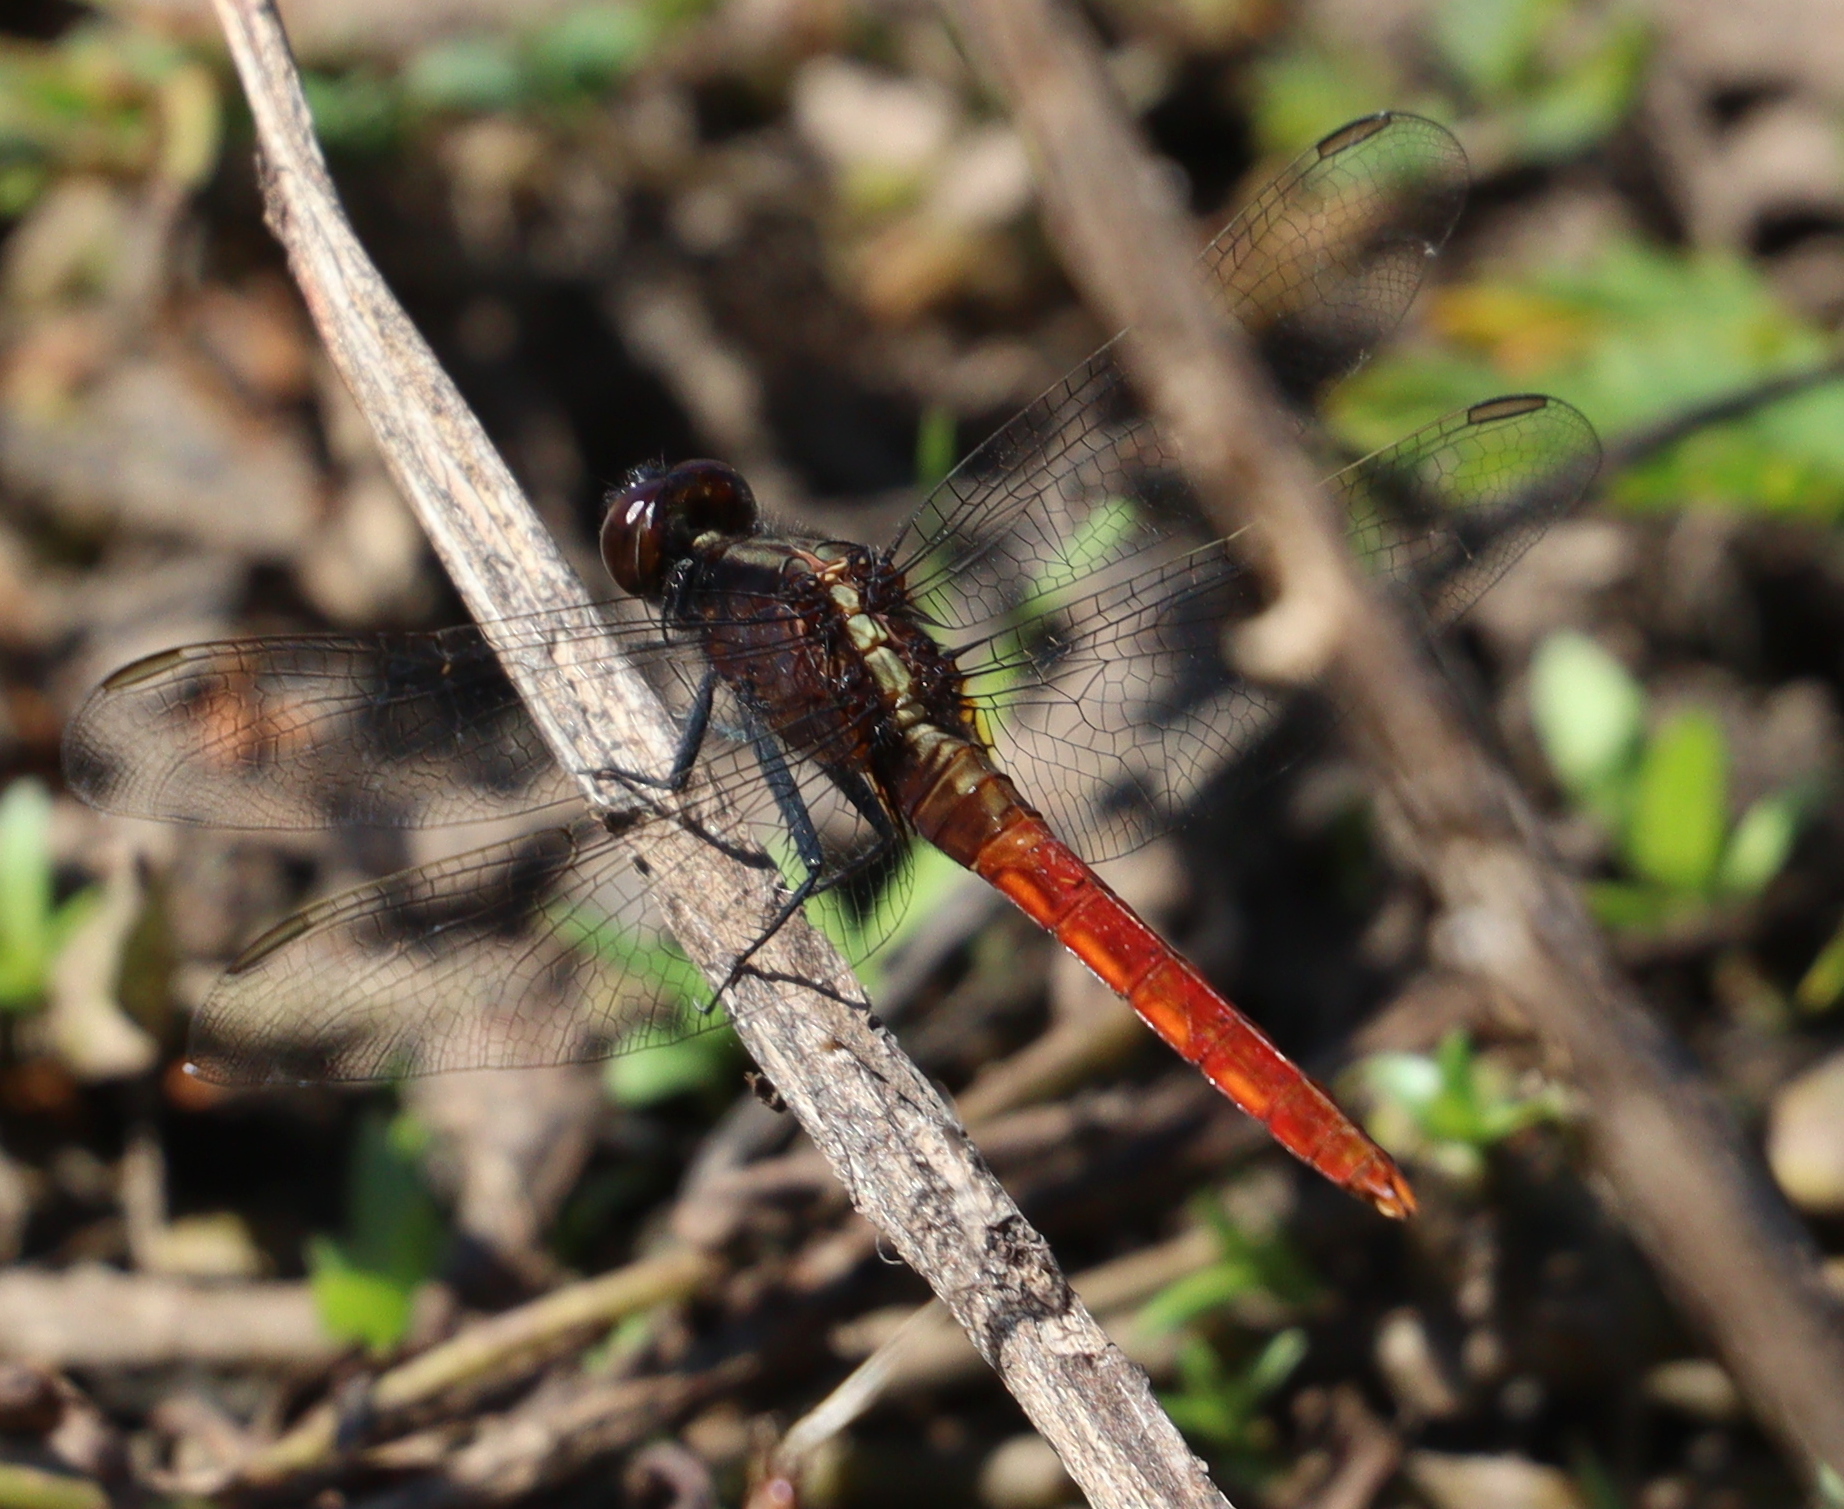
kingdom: Animalia
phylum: Arthropoda
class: Insecta
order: Odonata
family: Libellulidae
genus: Erythemis
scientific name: Erythemis peruviana
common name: Flame-tailed pondhawk
